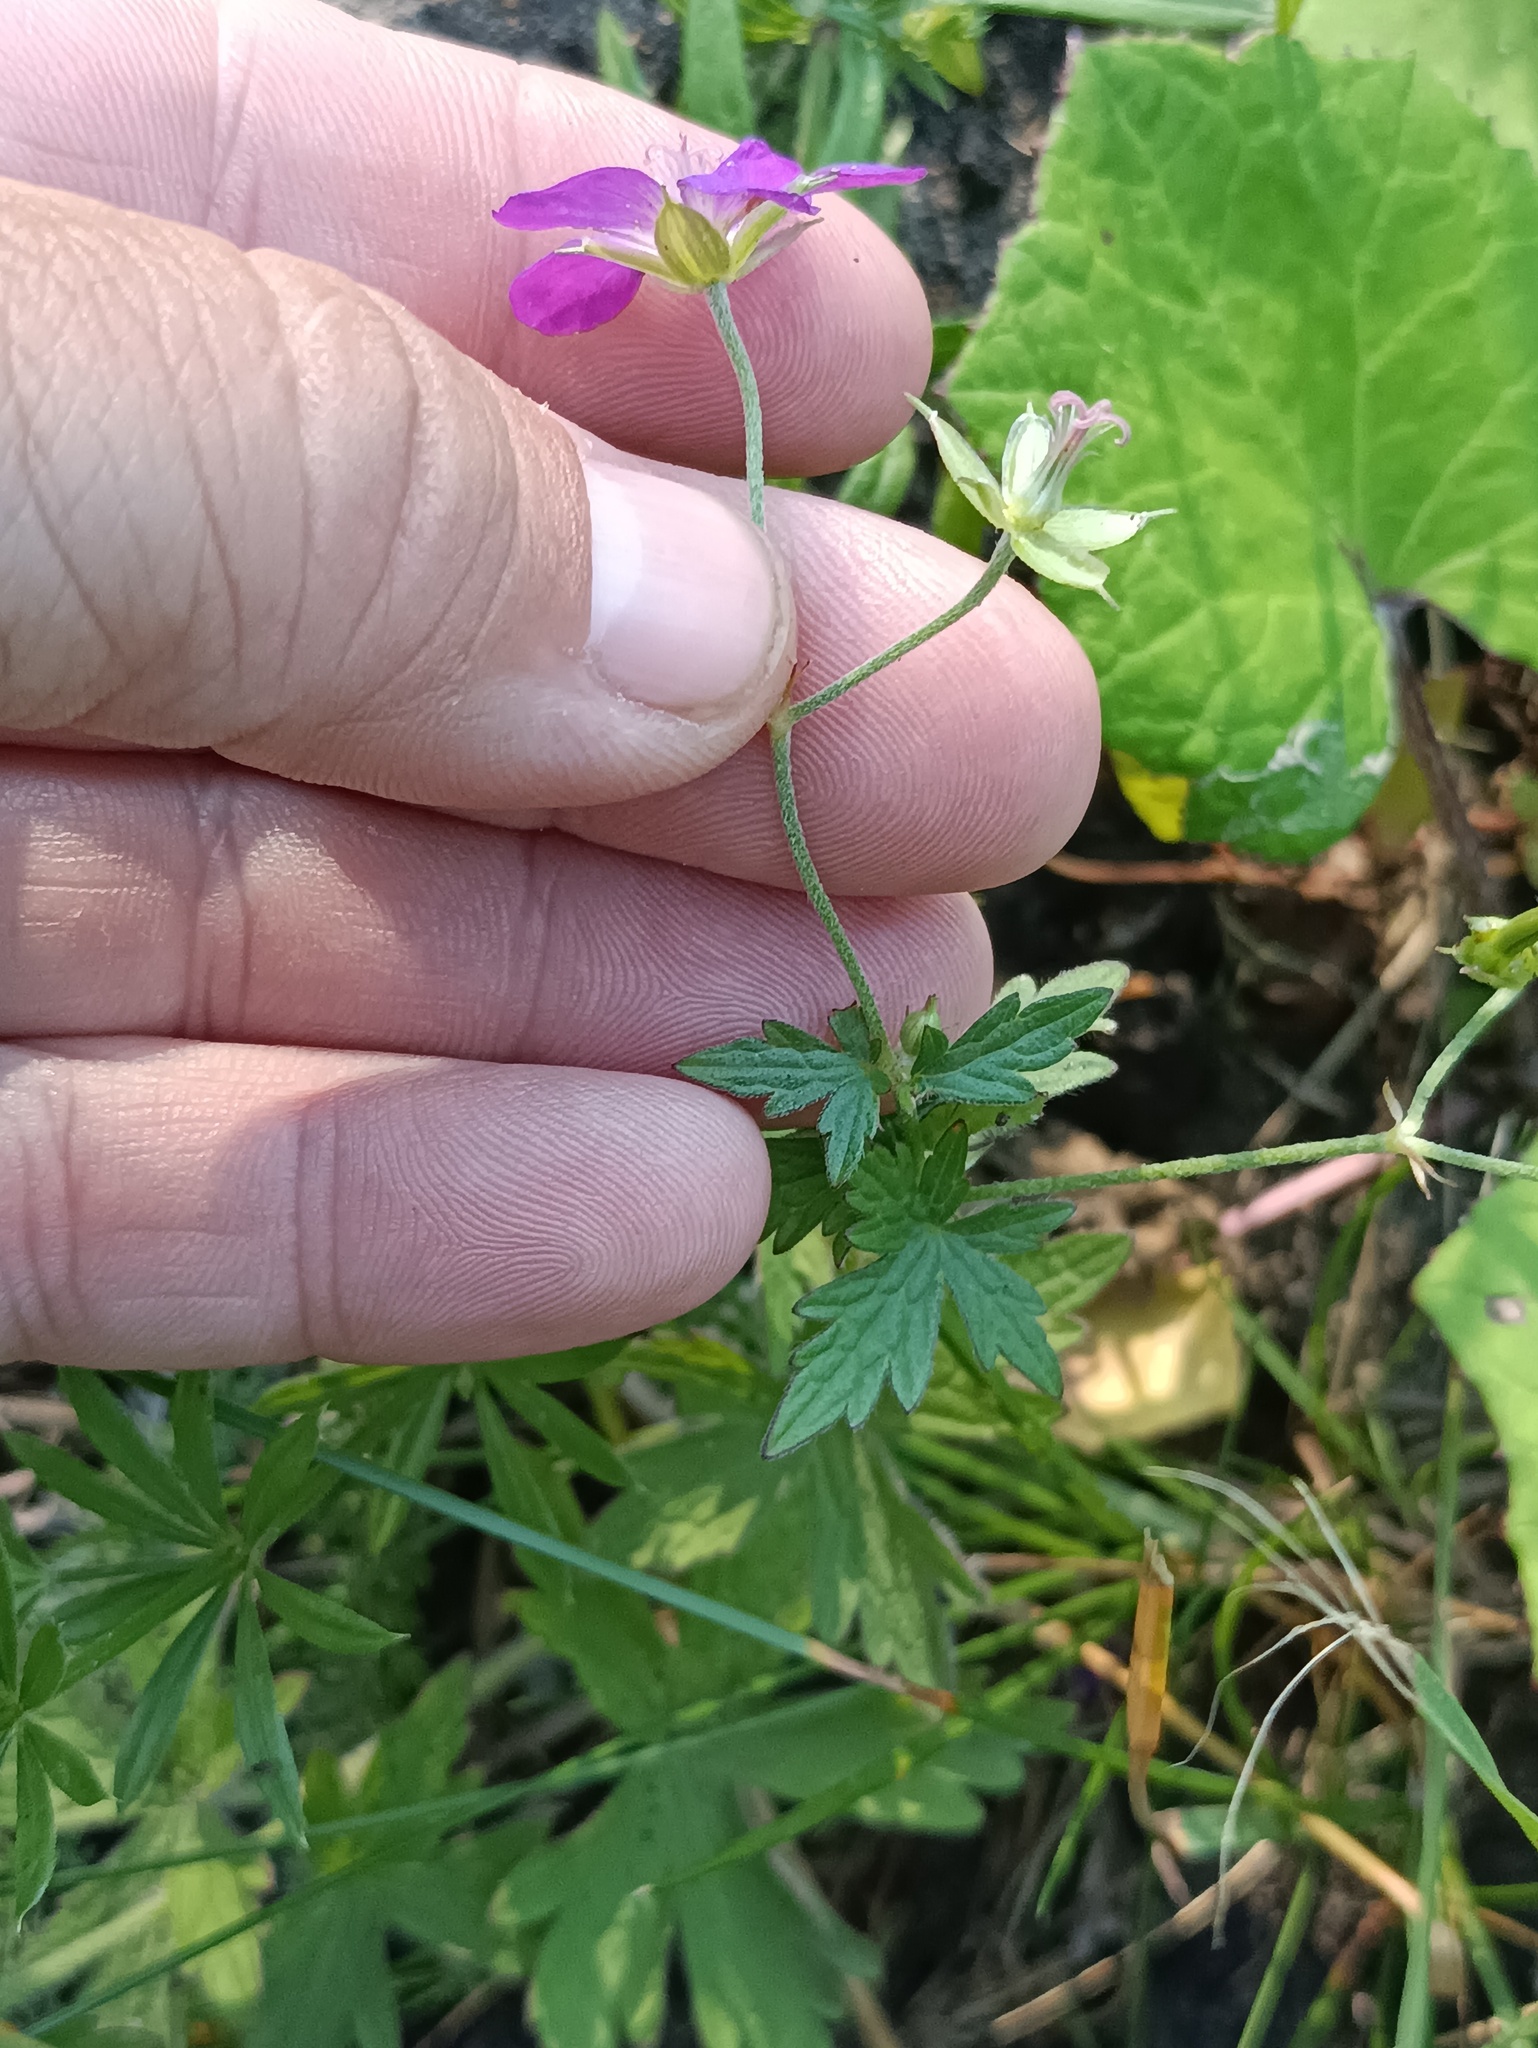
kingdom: Plantae
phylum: Tracheophyta
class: Magnoliopsida
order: Geraniales
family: Geraniaceae
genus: Geranium
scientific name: Geranium palustre
